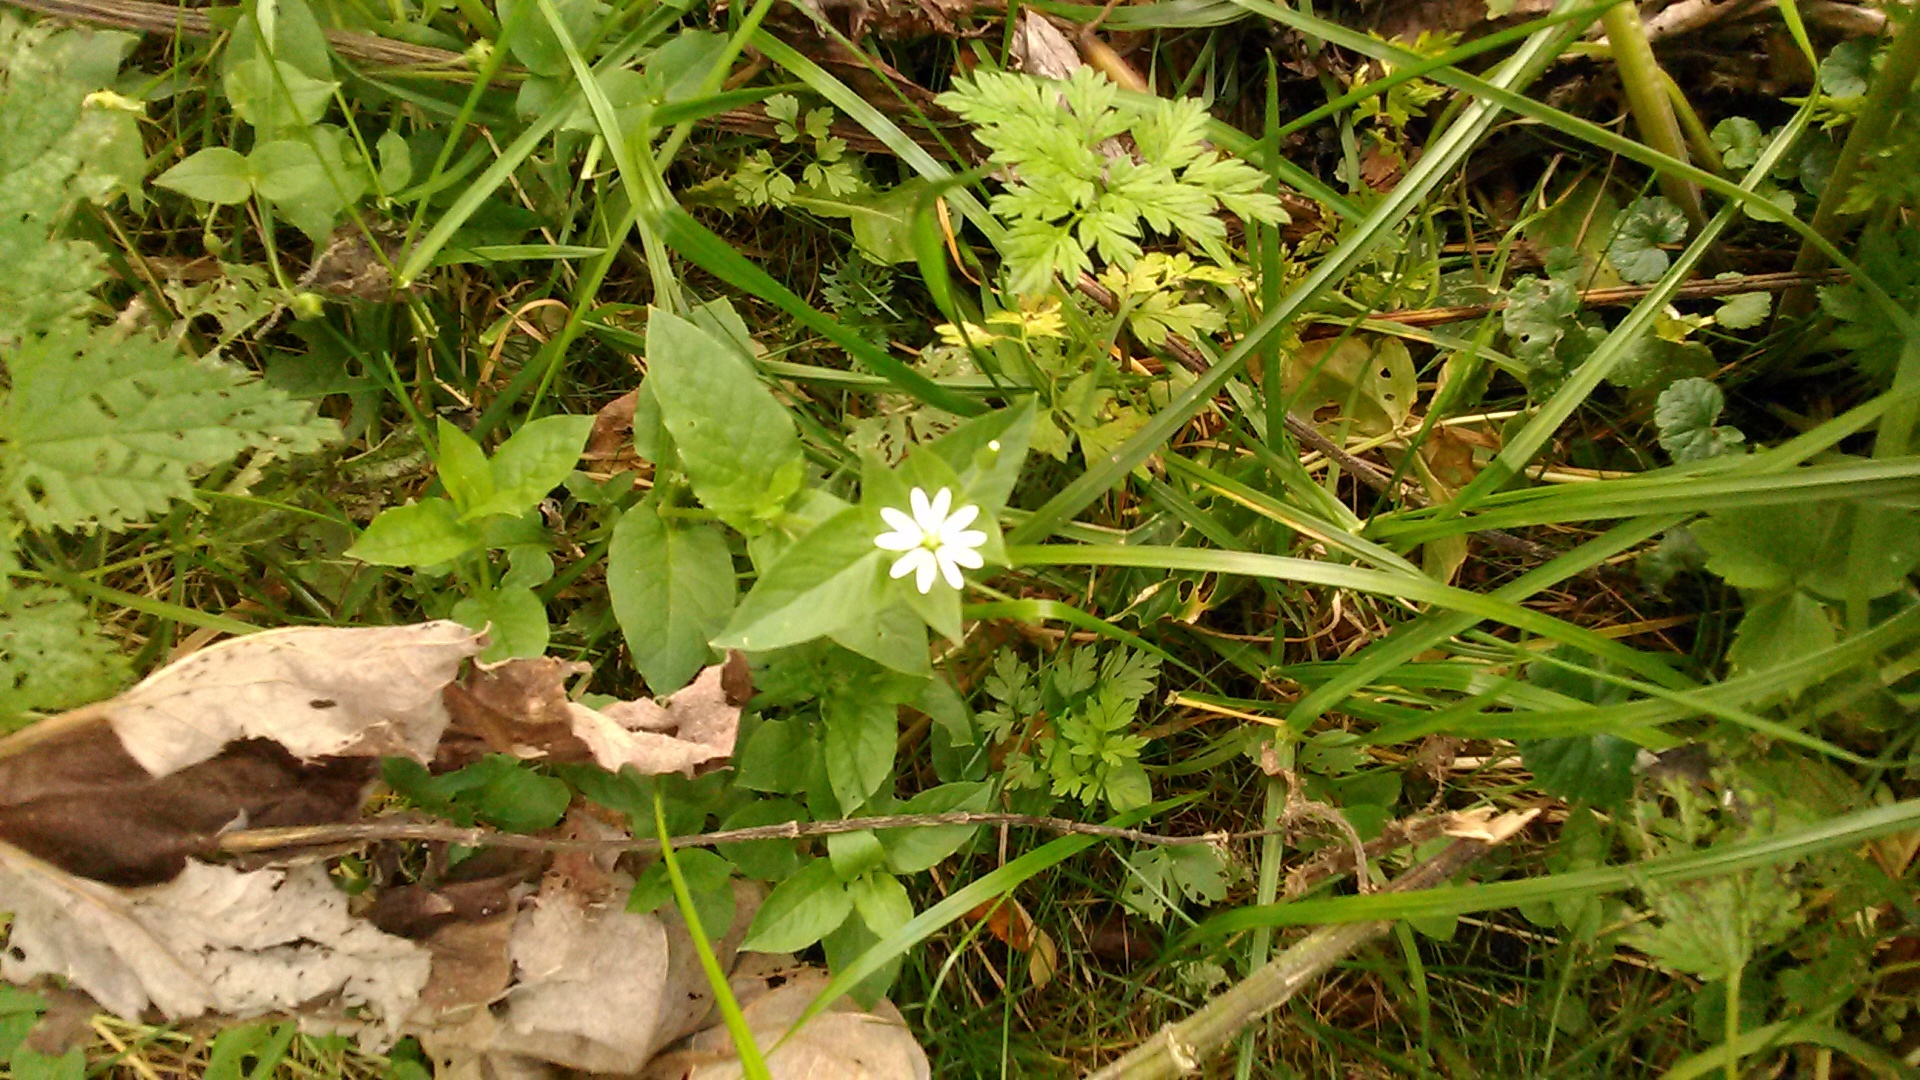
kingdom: Plantae
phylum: Tracheophyta
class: Magnoliopsida
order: Caryophyllales
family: Caryophyllaceae
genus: Stellaria
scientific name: Stellaria aquatica
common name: Water chickweed
